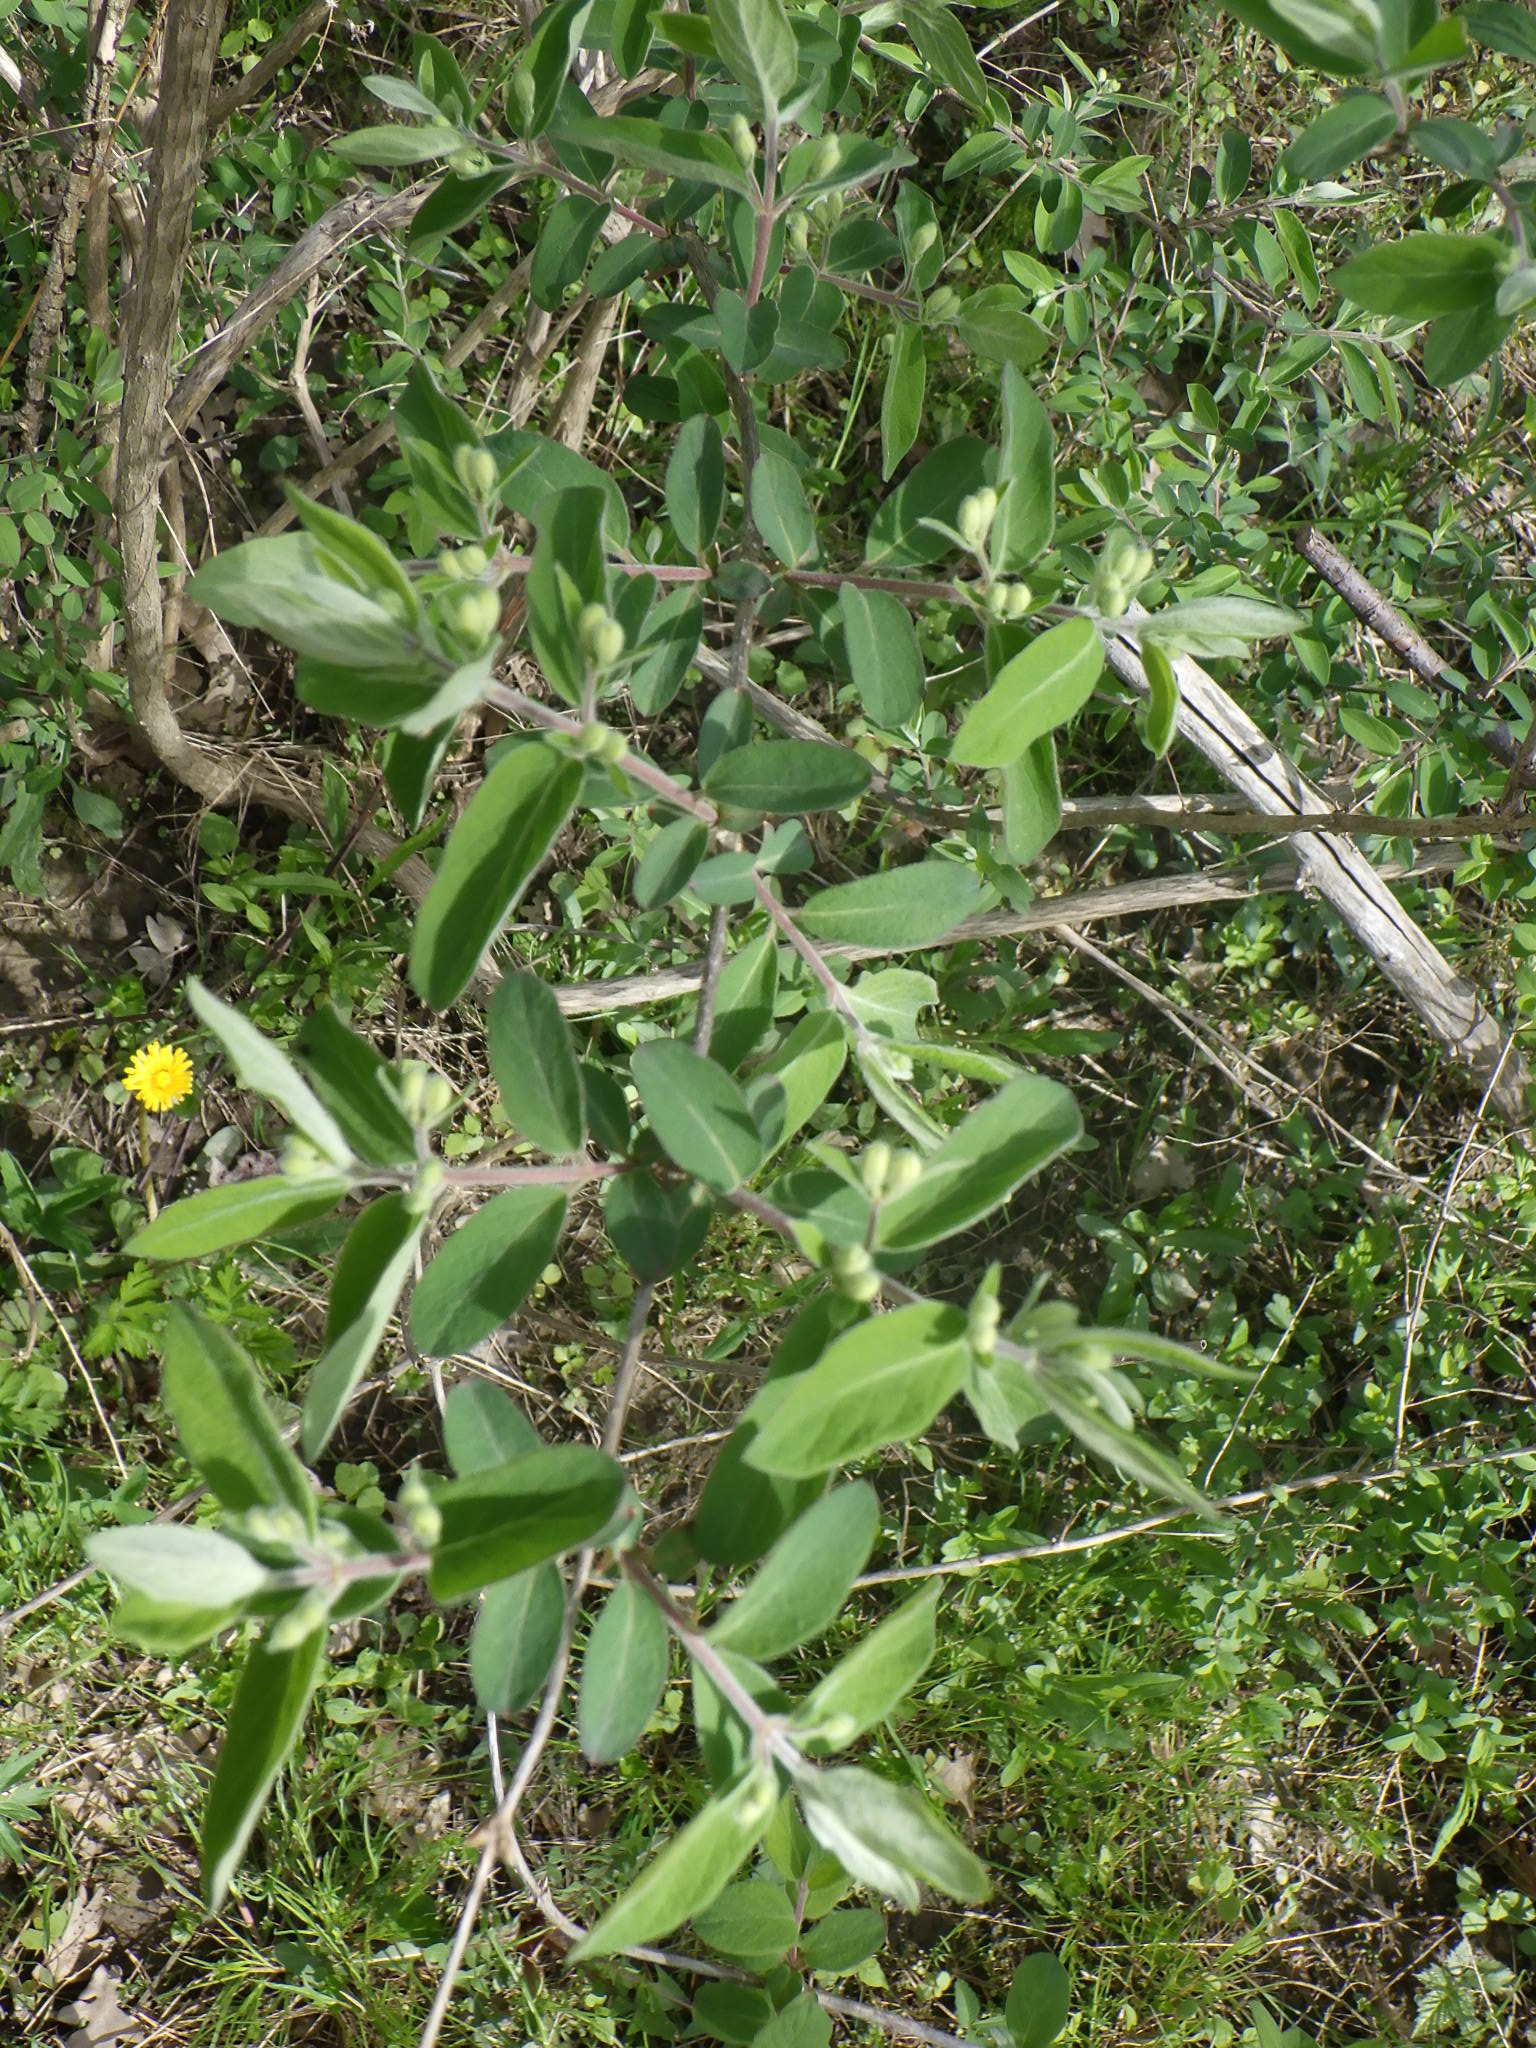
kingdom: Plantae
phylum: Tracheophyta
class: Magnoliopsida
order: Dipsacales
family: Caprifoliaceae
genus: Lonicera
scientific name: Lonicera
